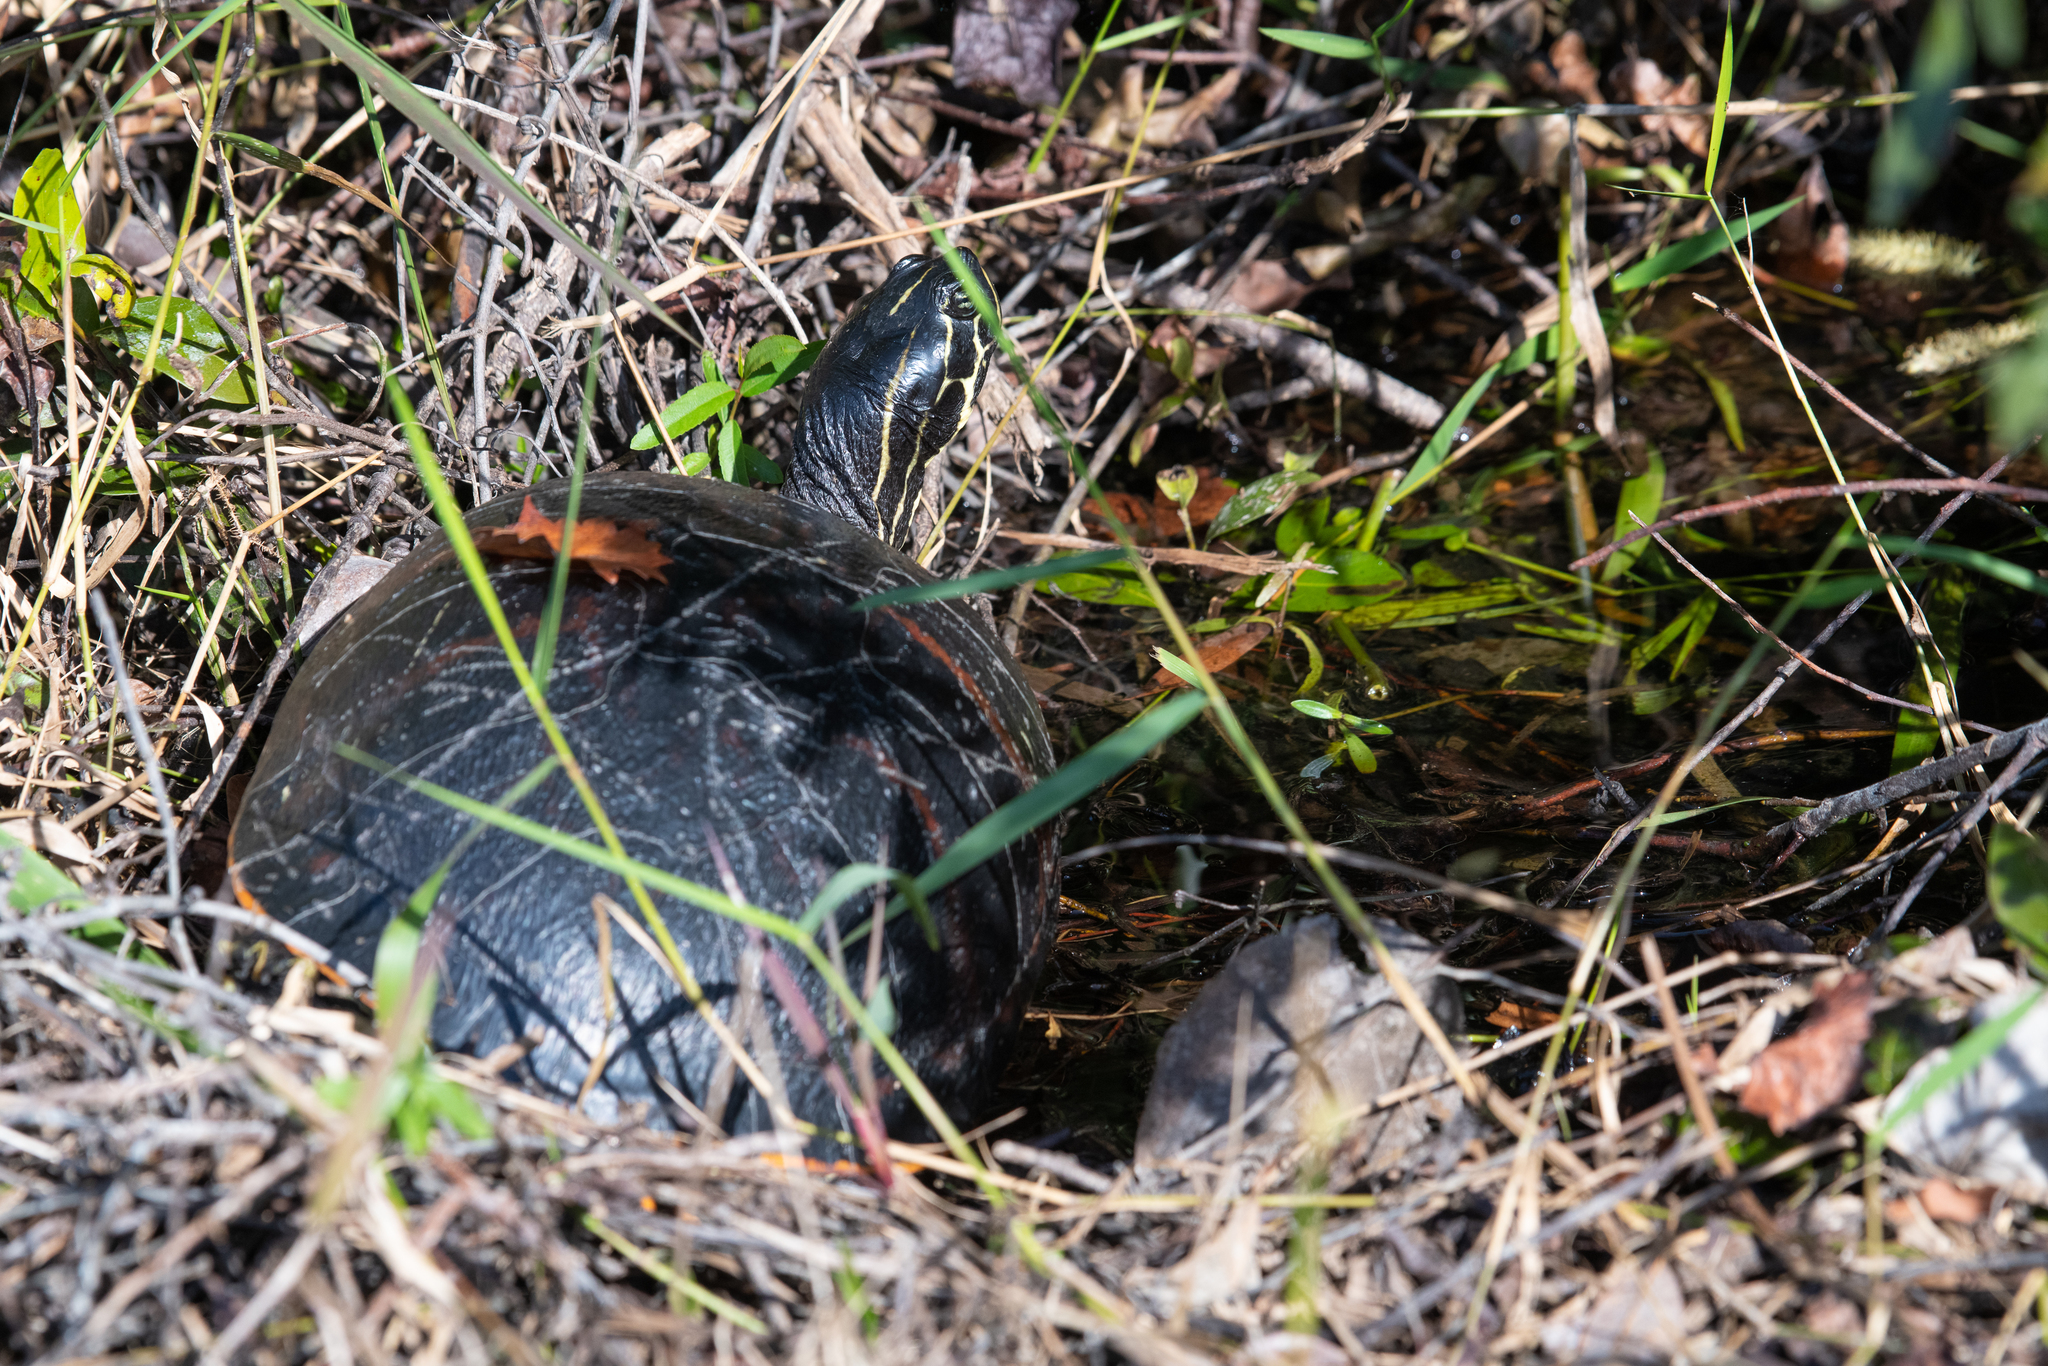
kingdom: Animalia
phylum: Chordata
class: Testudines
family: Emydidae
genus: Pseudemys
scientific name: Pseudemys nelsoni
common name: Florida red-bellied turtle
